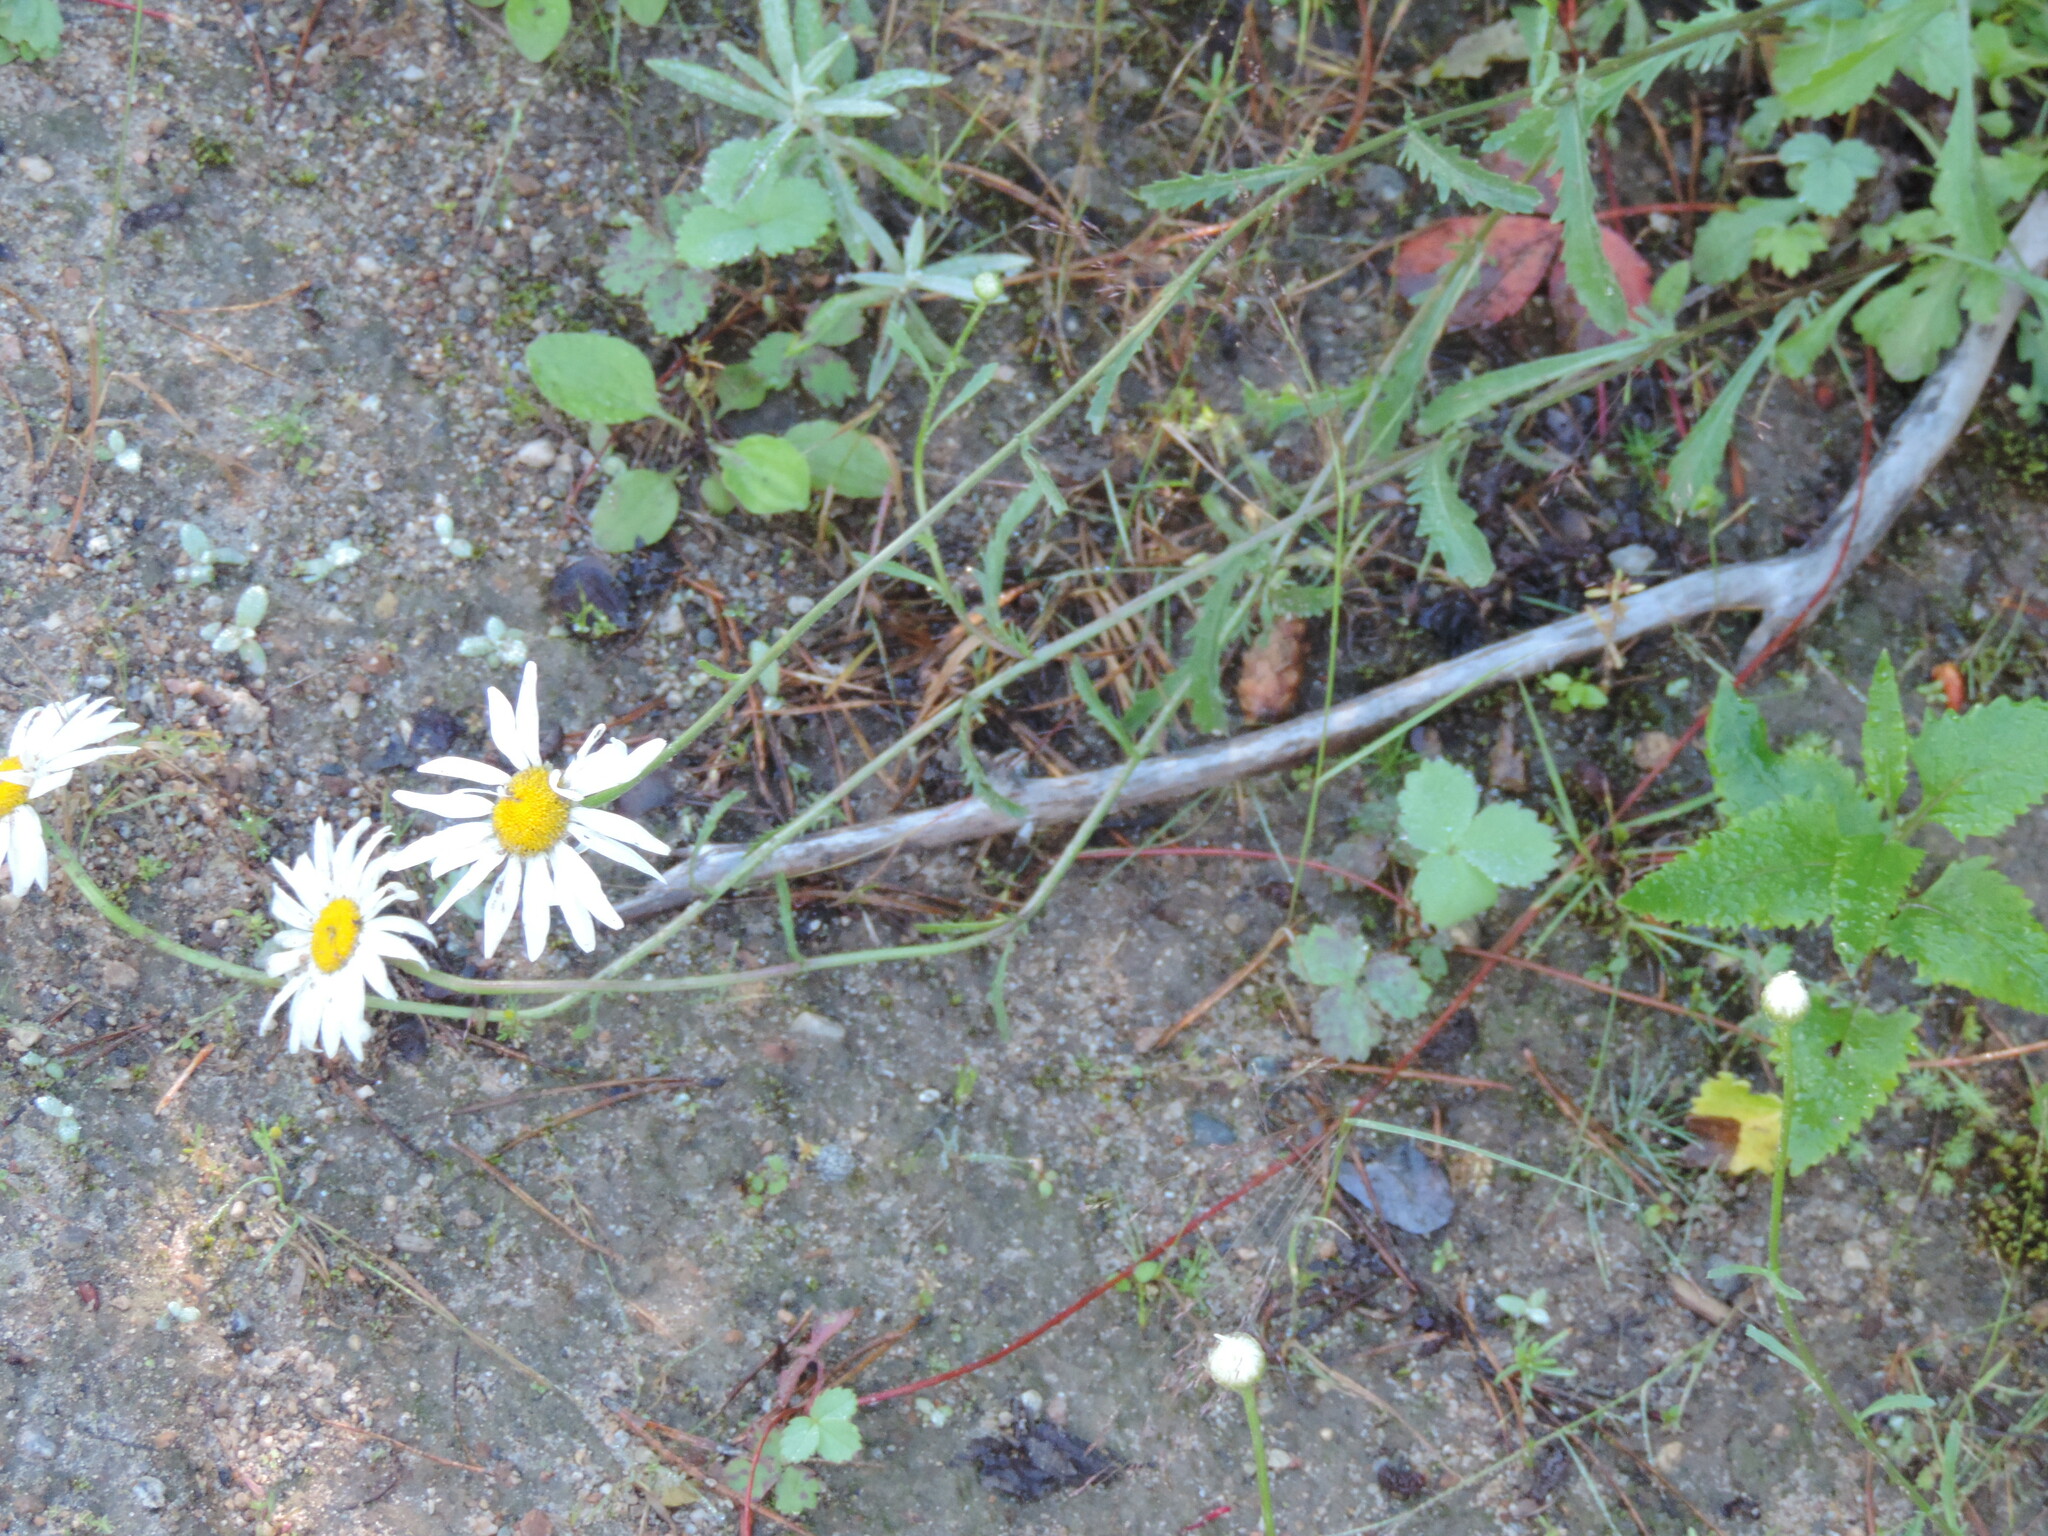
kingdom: Plantae
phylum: Tracheophyta
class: Magnoliopsida
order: Asterales
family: Asteraceae
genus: Leucanthemum
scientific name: Leucanthemum vulgare
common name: Oxeye daisy
